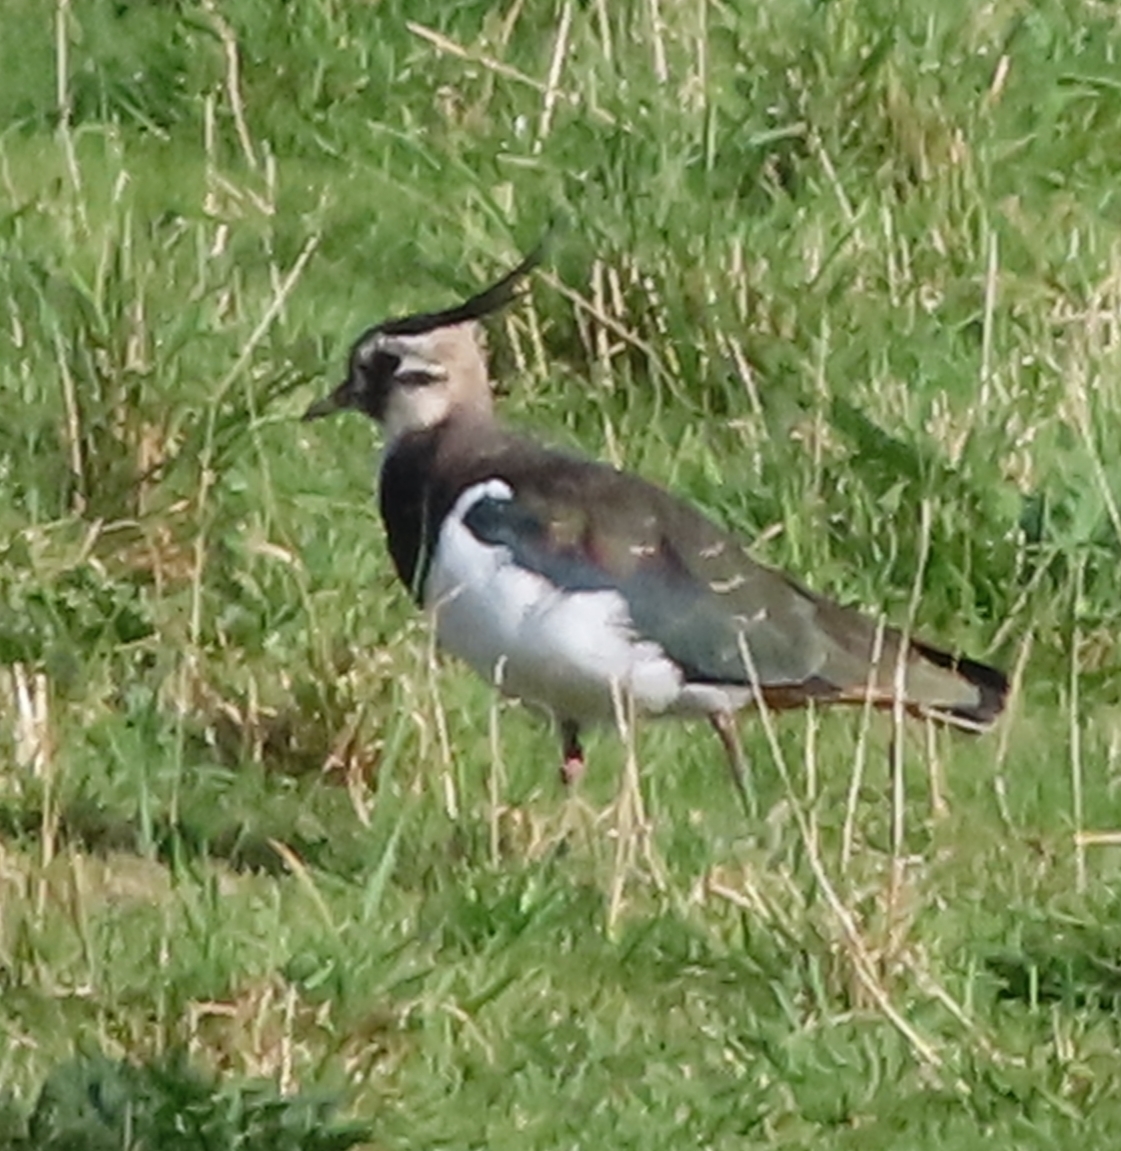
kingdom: Animalia
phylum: Chordata
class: Aves
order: Charadriiformes
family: Charadriidae
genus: Vanellus
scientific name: Vanellus vanellus
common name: Northern lapwing
